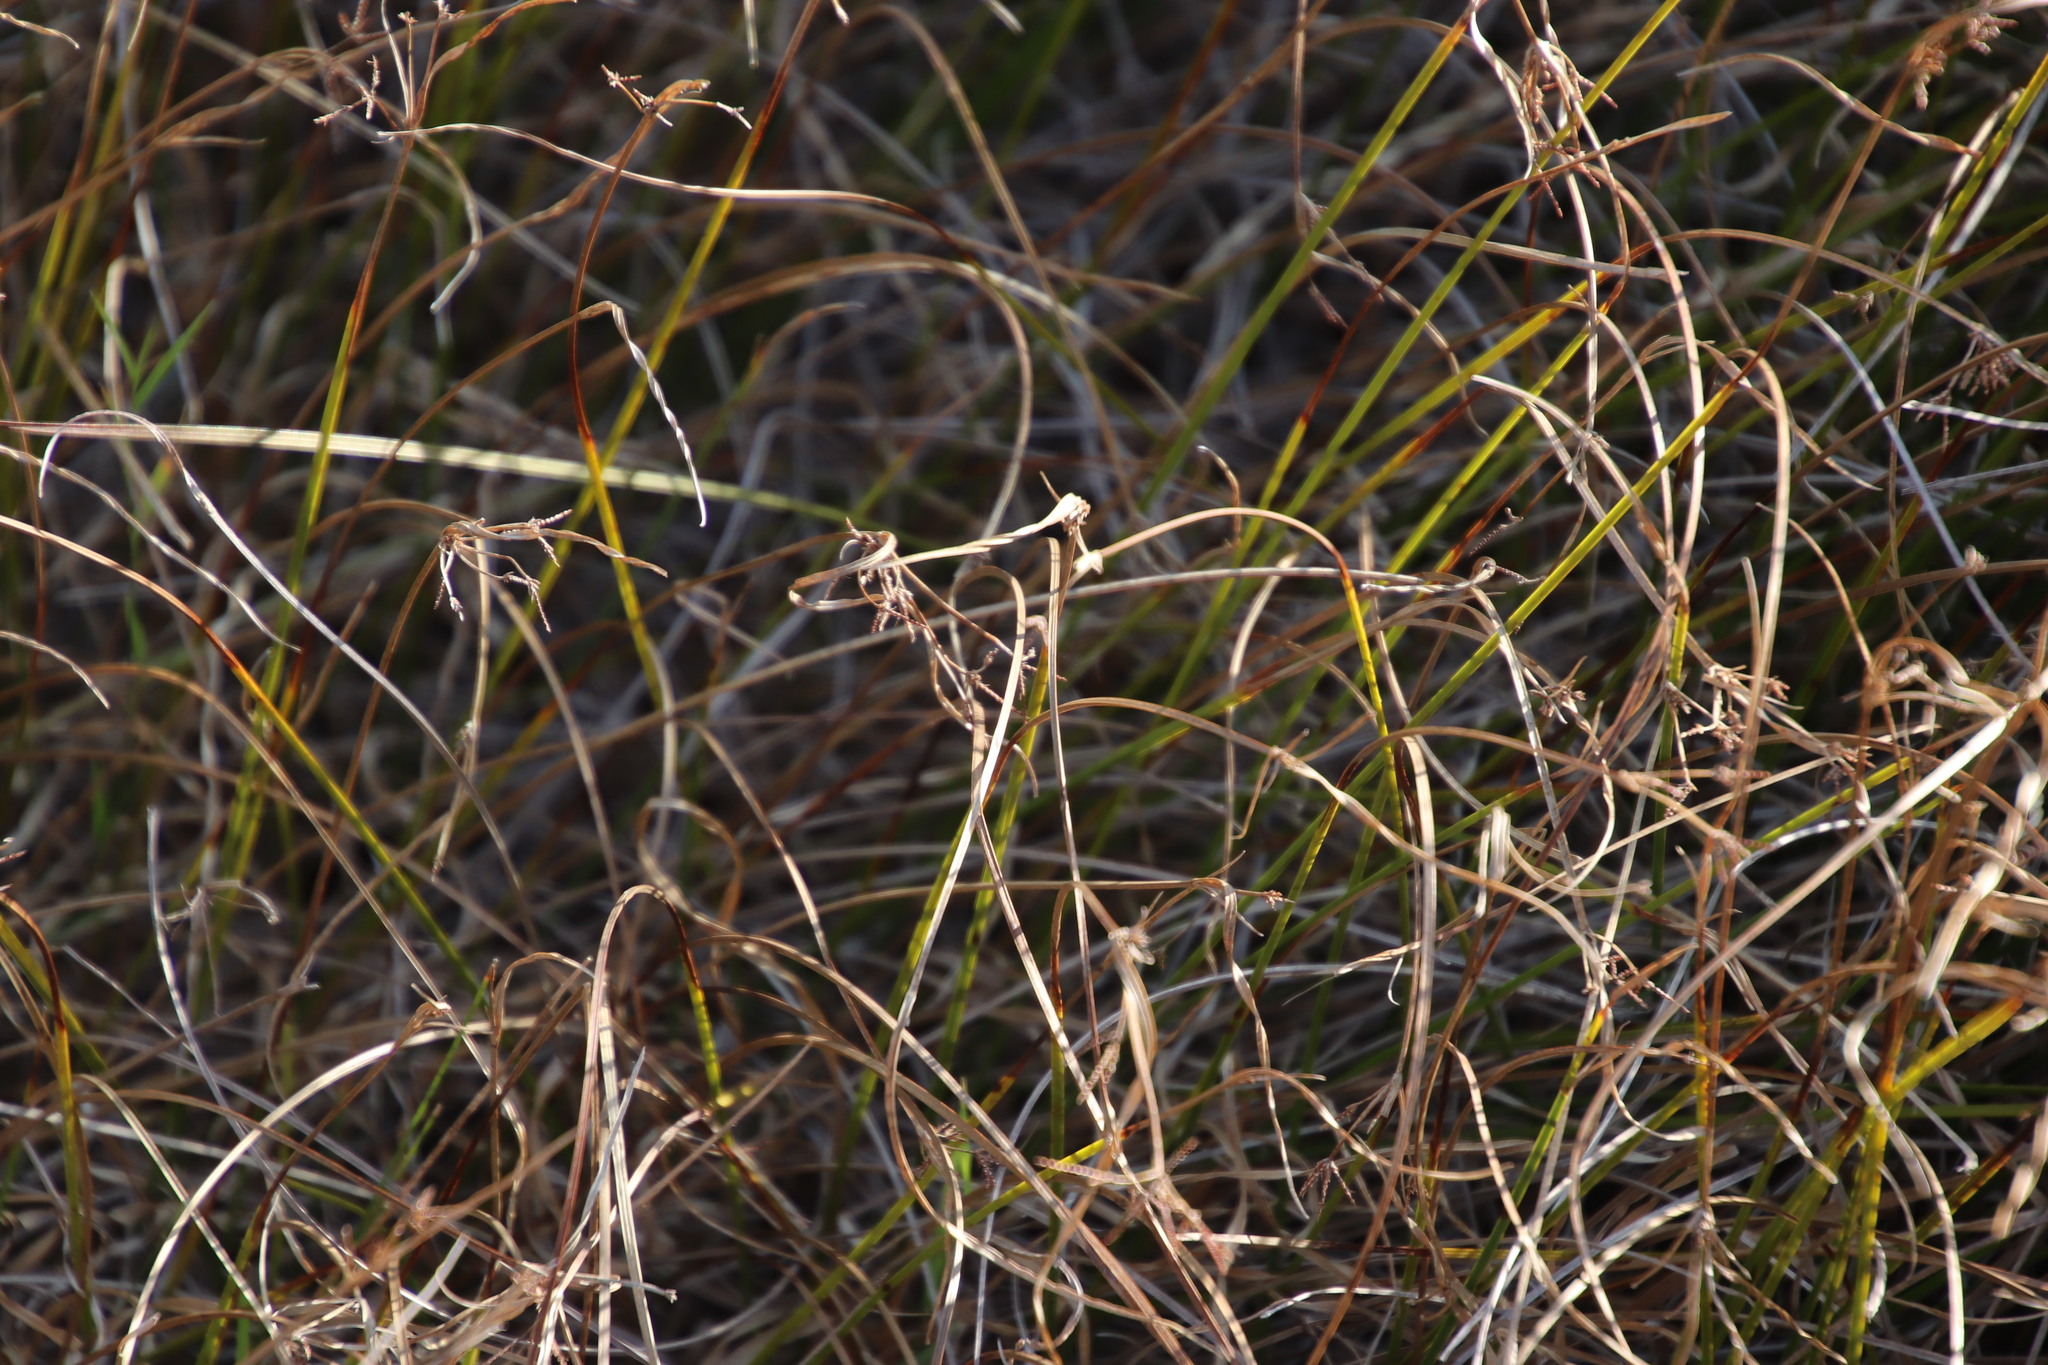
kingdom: Plantae
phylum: Tracheophyta
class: Liliopsida
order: Poales
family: Cyperaceae
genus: Cyperus
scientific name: Cyperus denudatus
